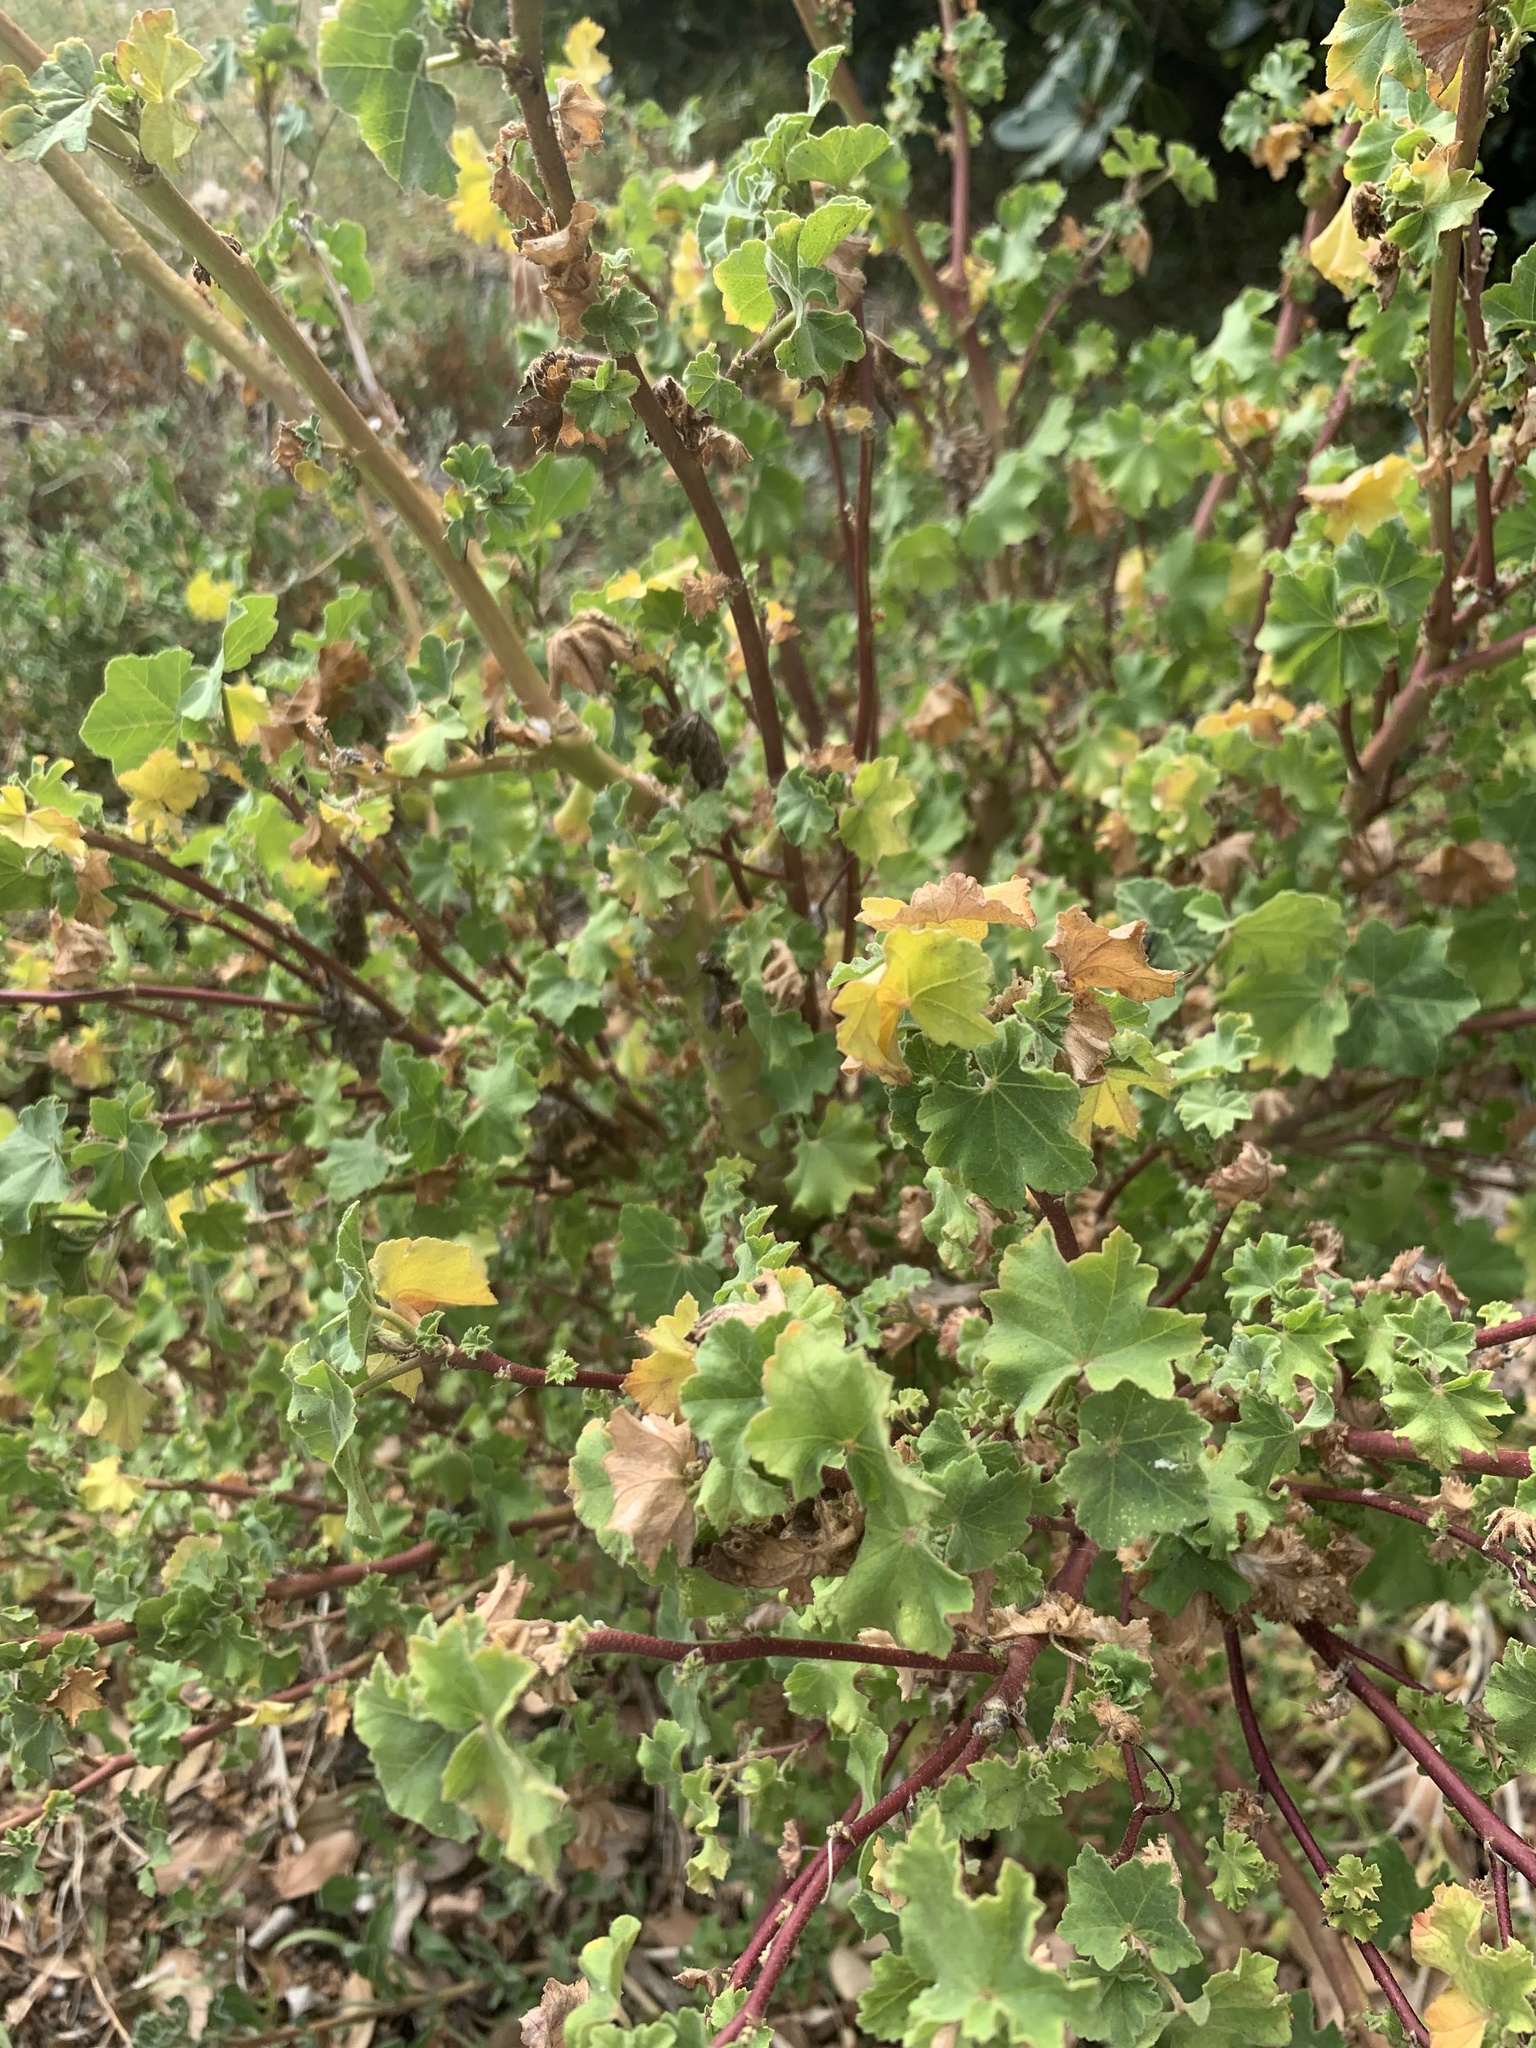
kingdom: Plantae
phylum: Tracheophyta
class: Magnoliopsida
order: Malvales
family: Malvaceae
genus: Malva
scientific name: Malva arborea
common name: Tree mallow
